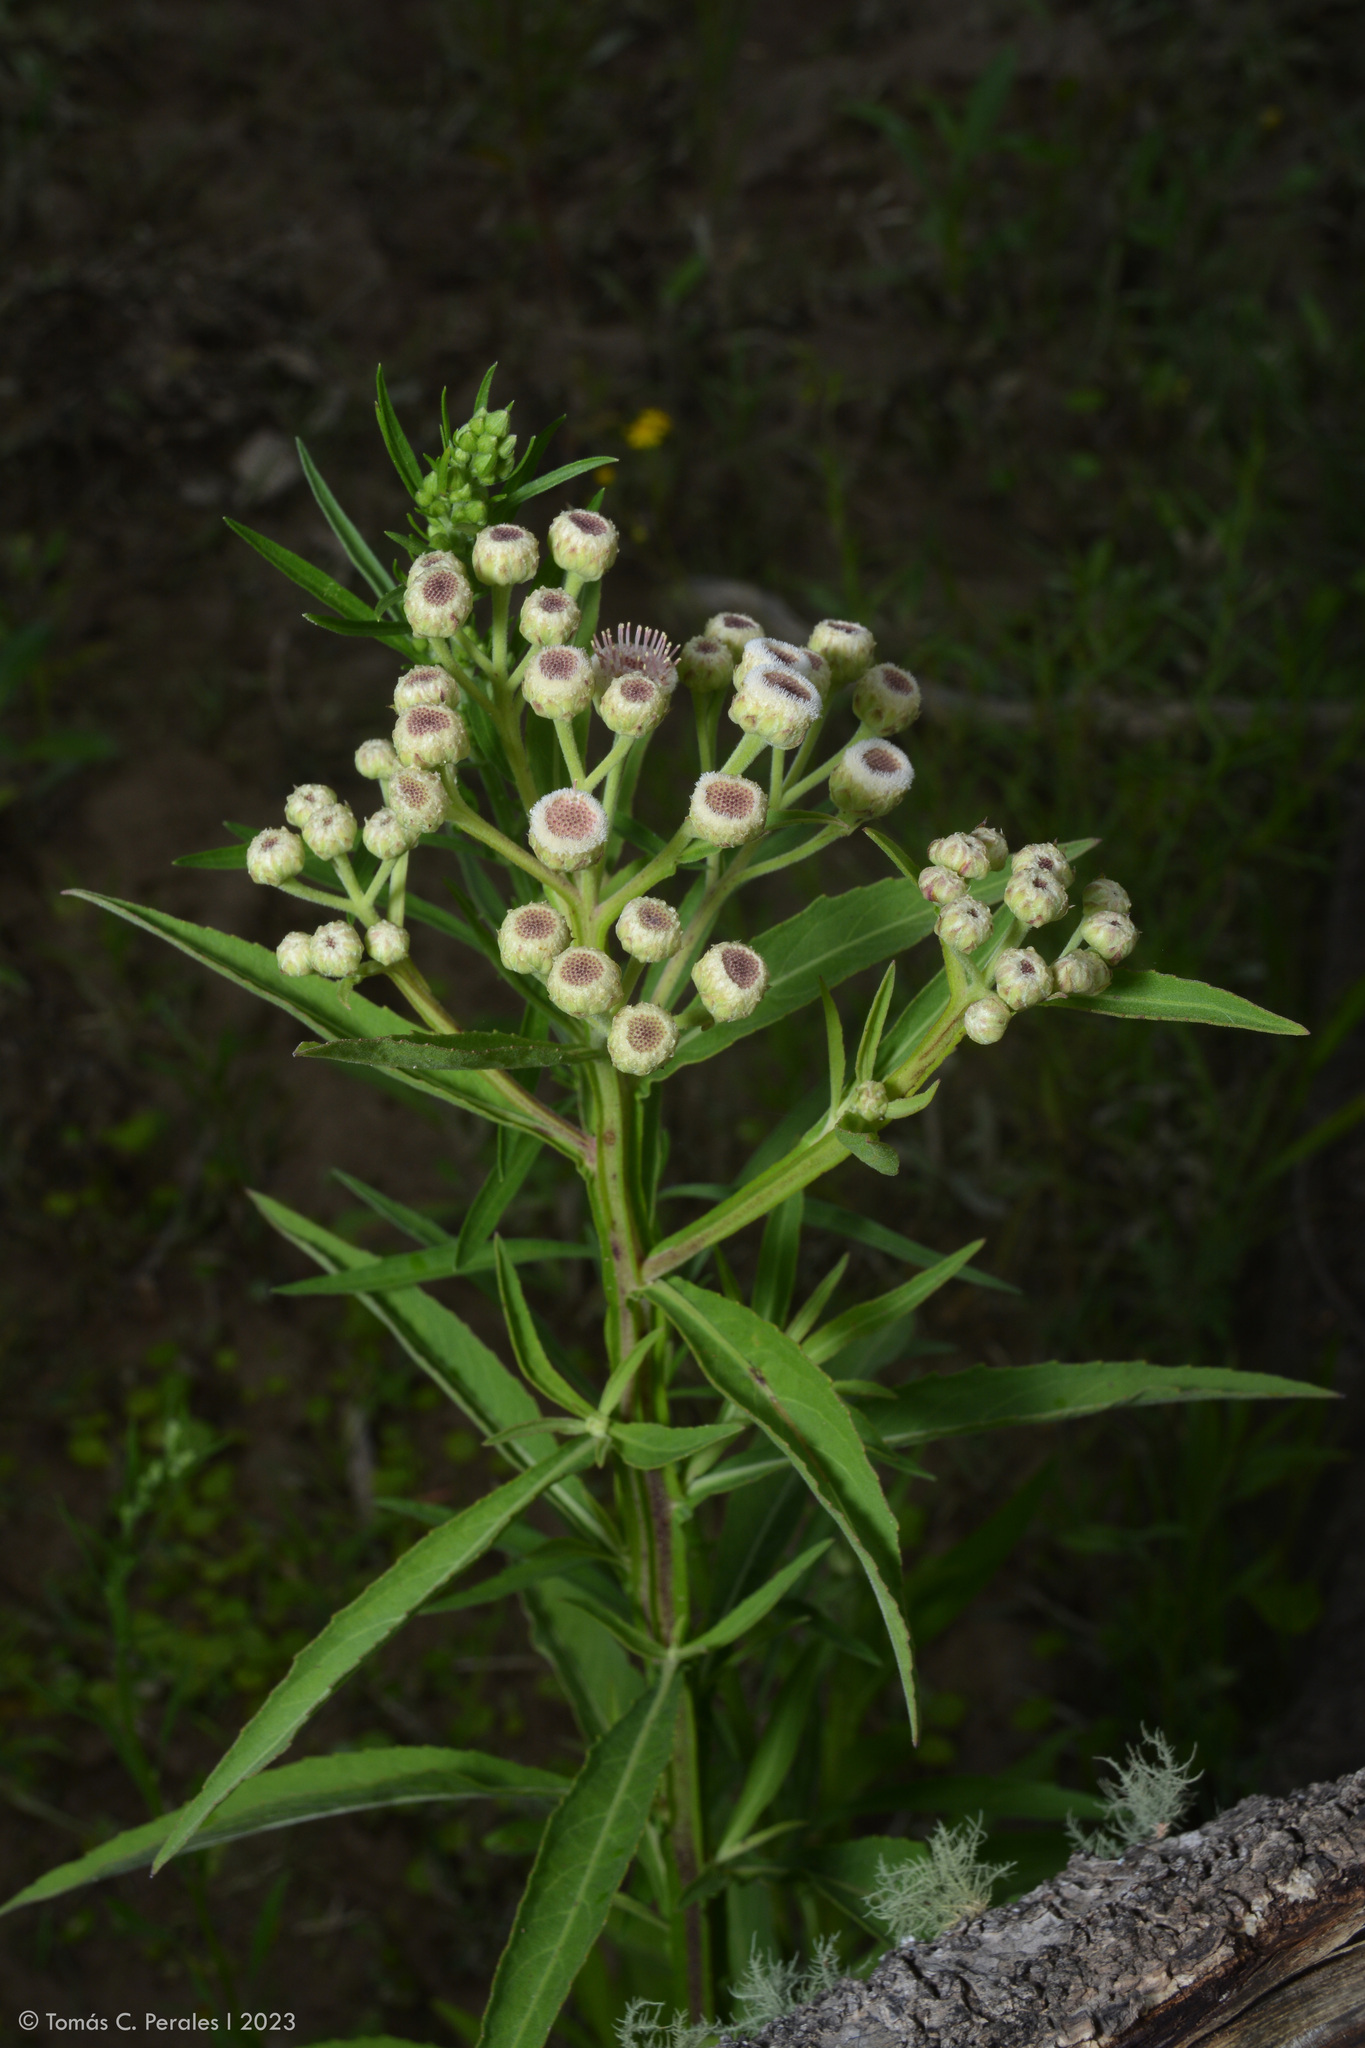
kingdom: Plantae
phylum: Tracheophyta
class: Magnoliopsida
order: Asterales
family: Asteraceae
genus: Pluchea
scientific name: Pluchea sagittalis
